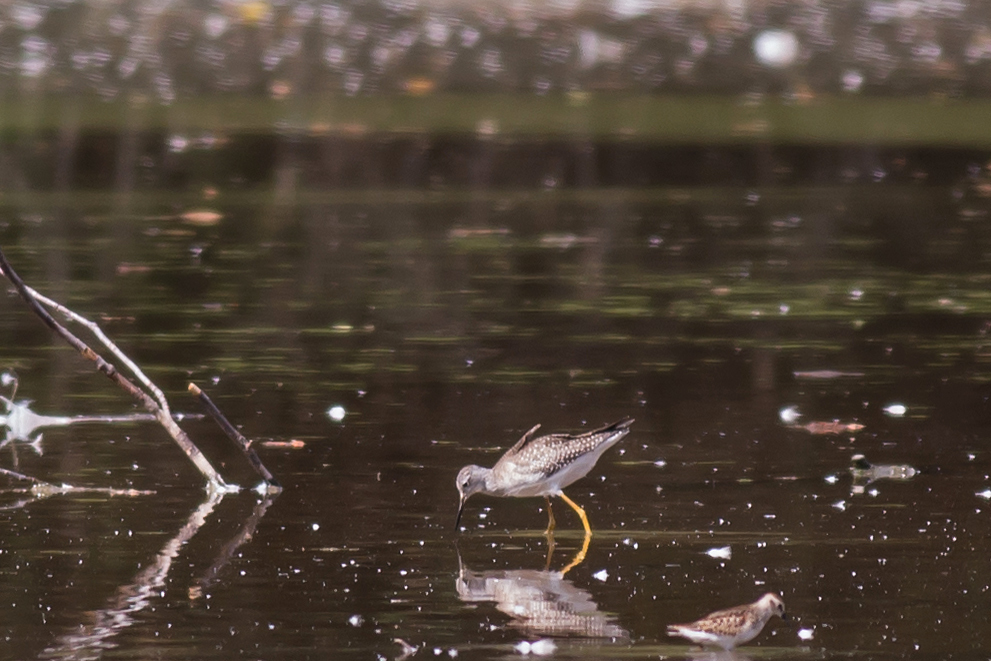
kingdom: Animalia
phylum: Chordata
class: Aves
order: Charadriiformes
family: Scolopacidae
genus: Tringa
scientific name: Tringa flavipes
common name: Lesser yellowlegs
